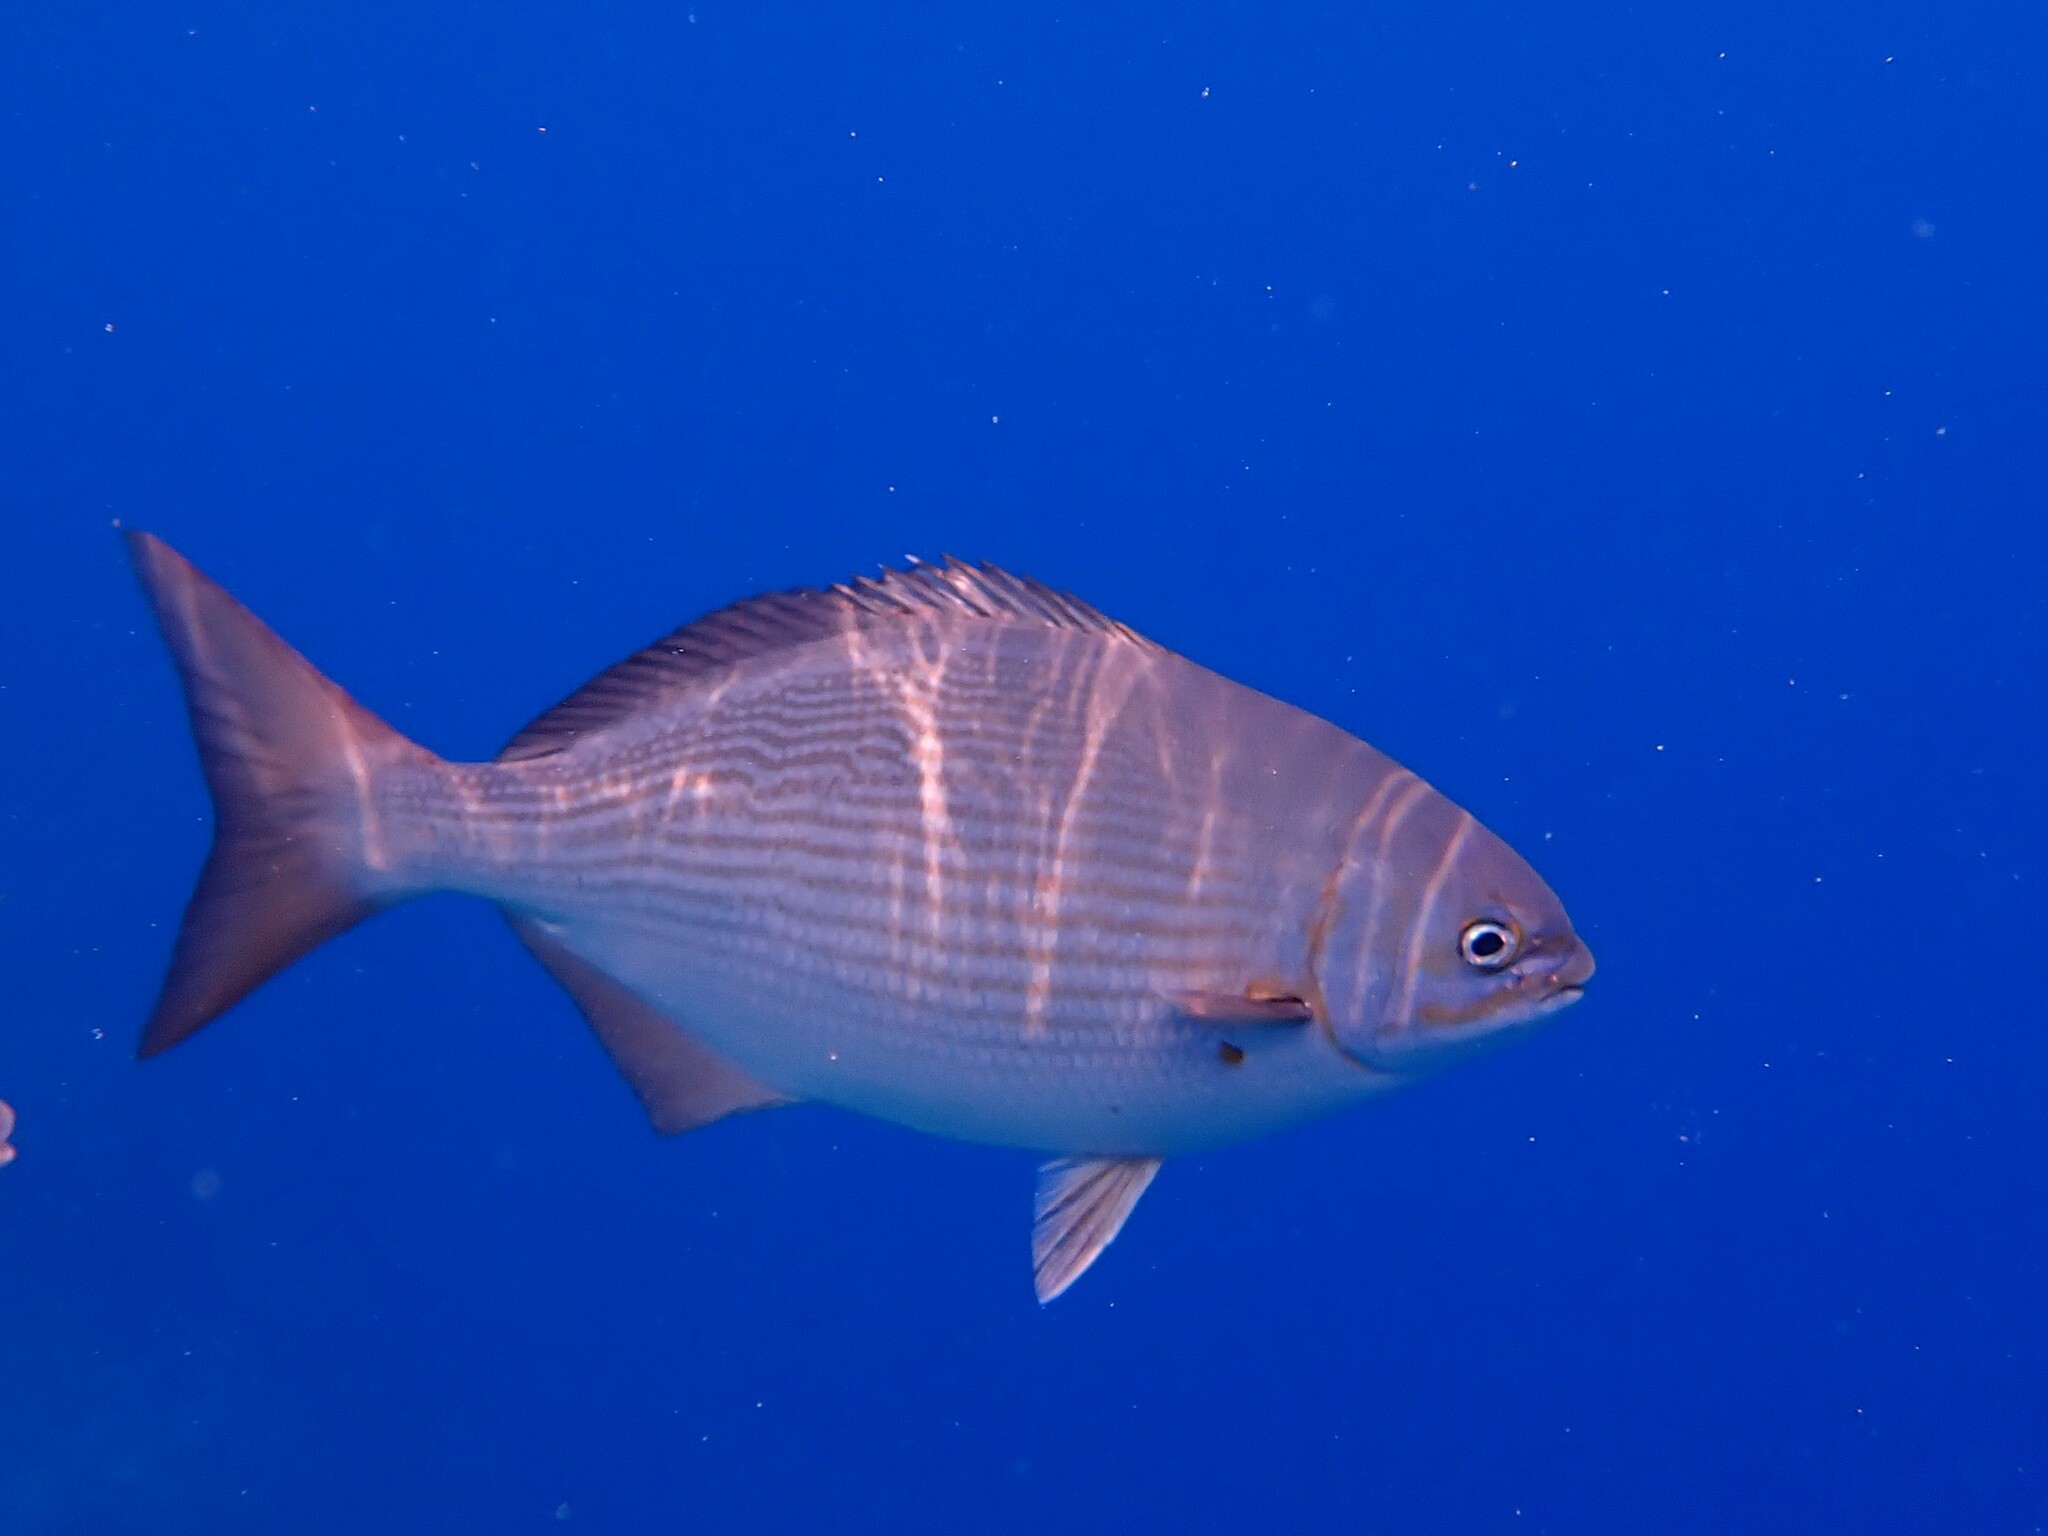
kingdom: Animalia
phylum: Chordata
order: Perciformes
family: Kyphosidae
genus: Kyphosus
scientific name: Kyphosus vaigiensis
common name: Brassy chub
